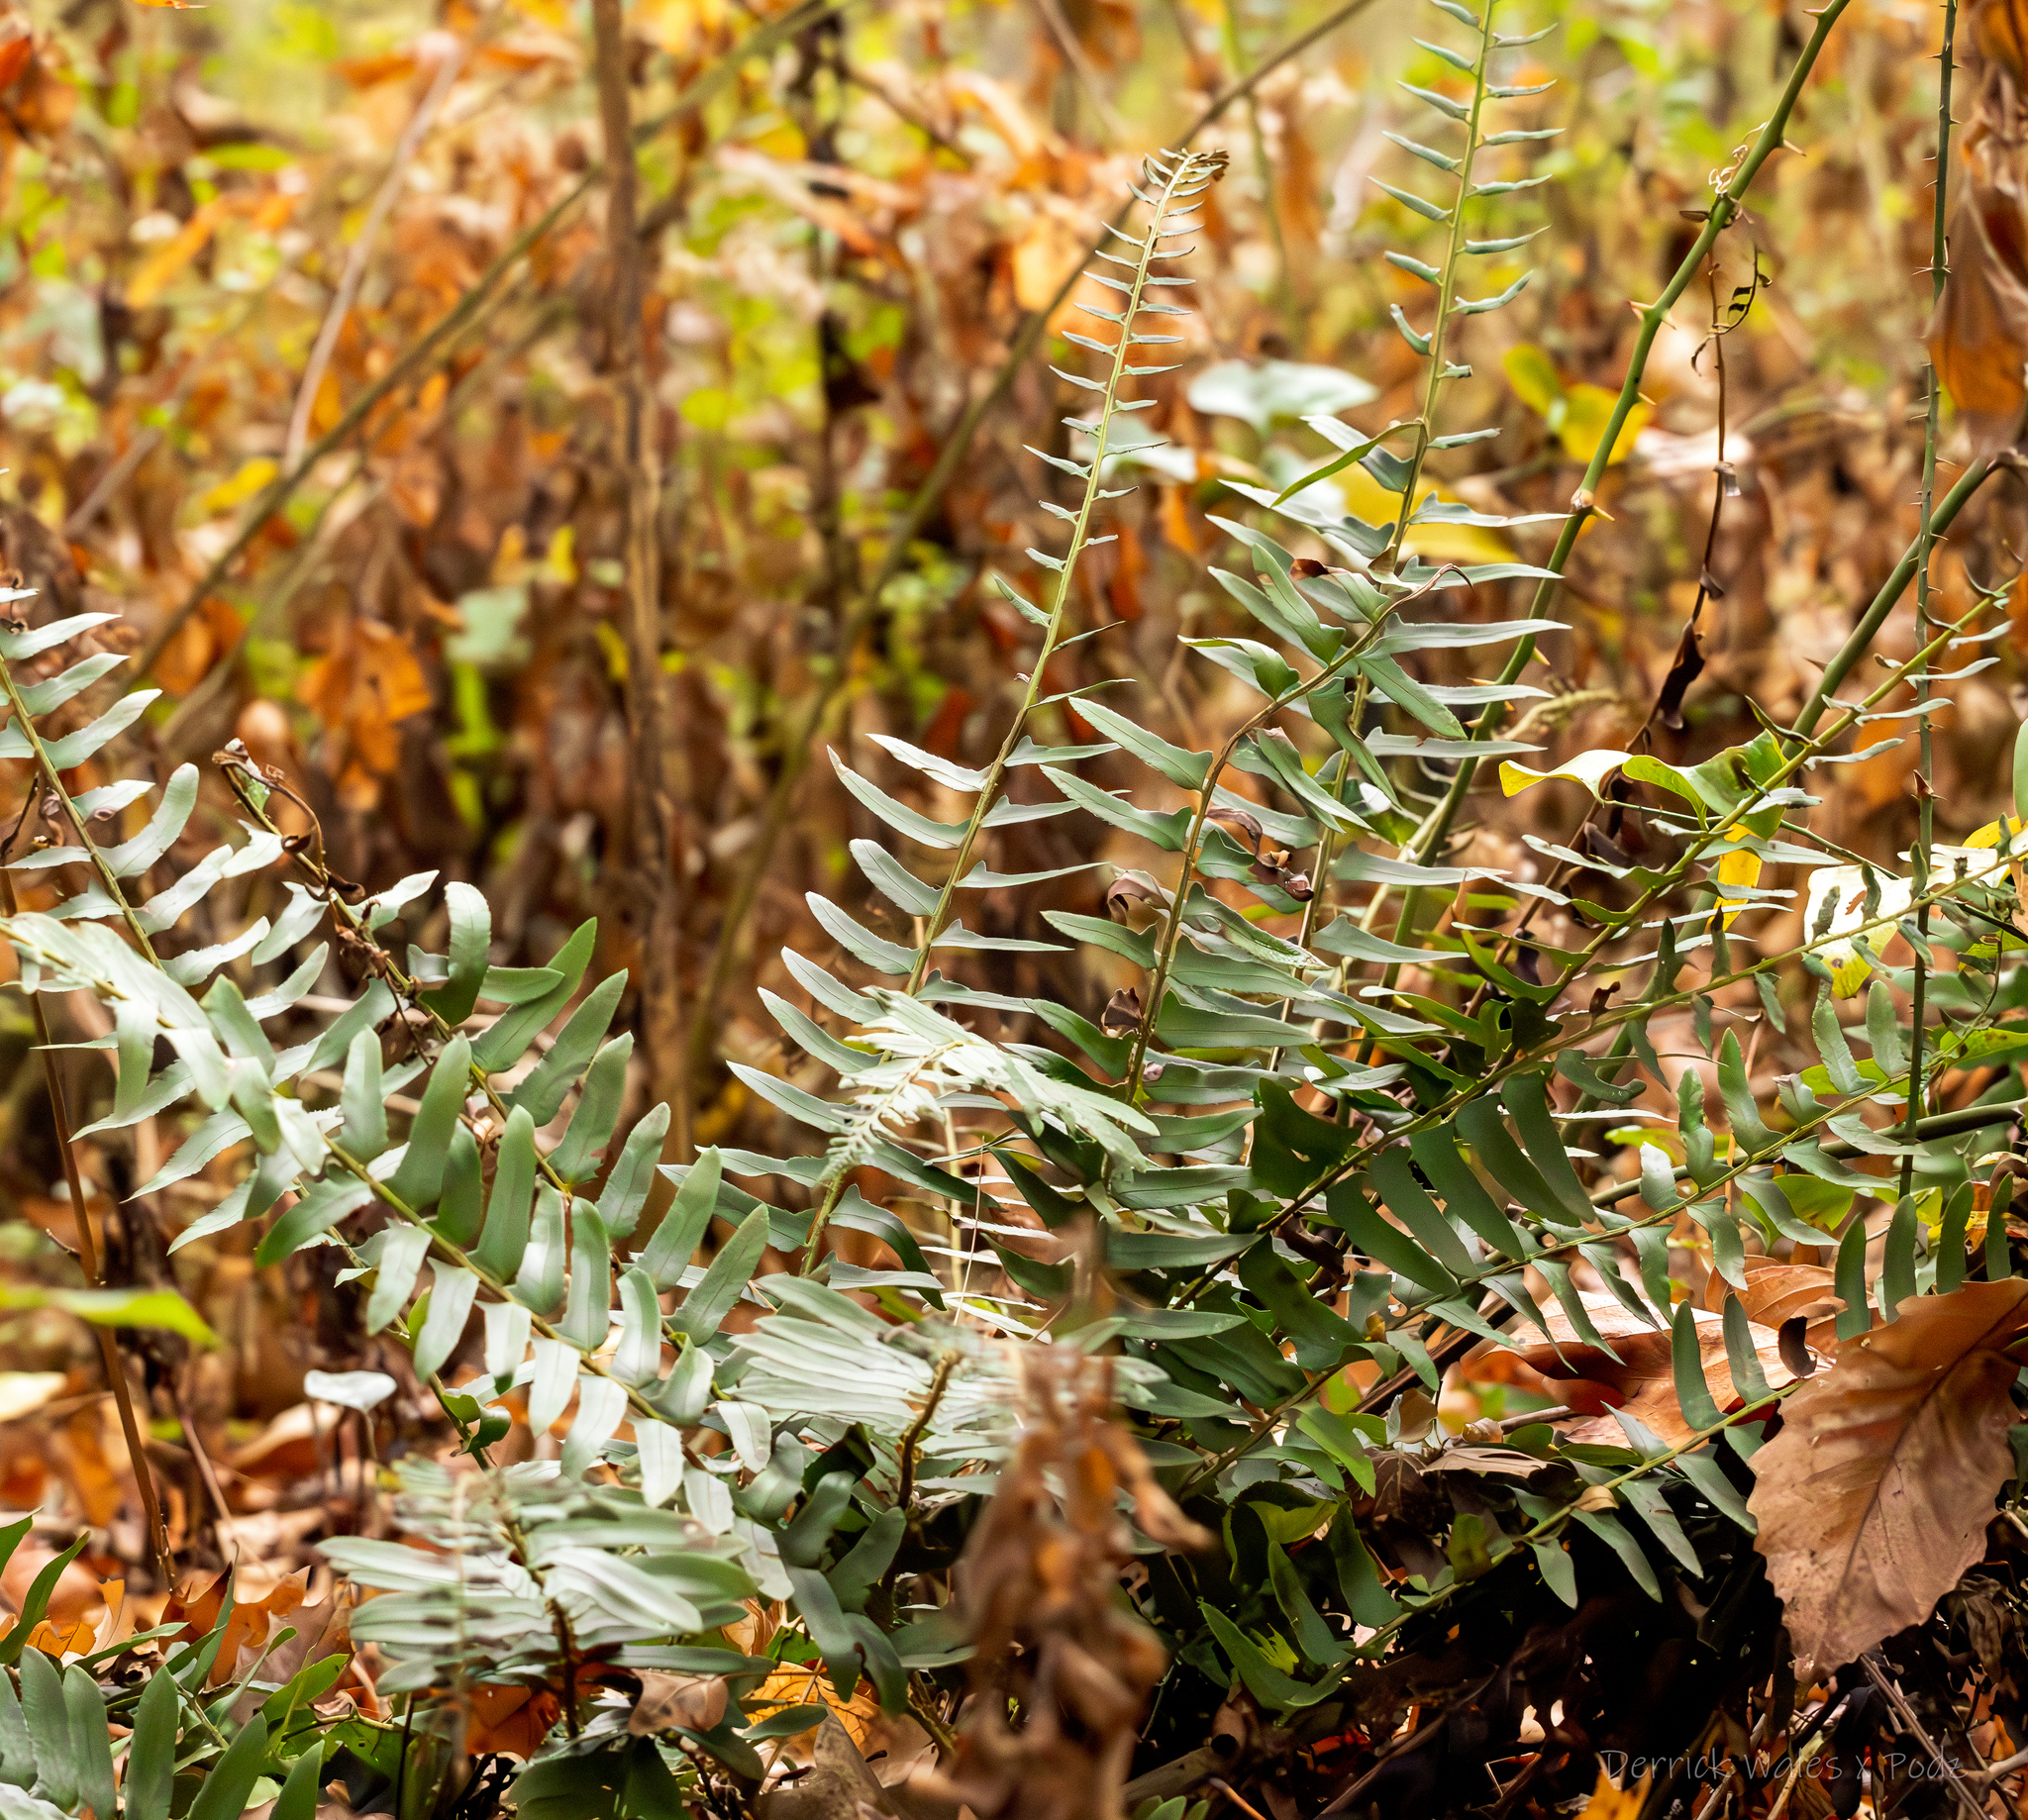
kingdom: Plantae
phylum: Tracheophyta
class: Polypodiopsida
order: Polypodiales
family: Dryopteridaceae
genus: Polystichum
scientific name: Polystichum acrostichoides
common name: Christmas fern
